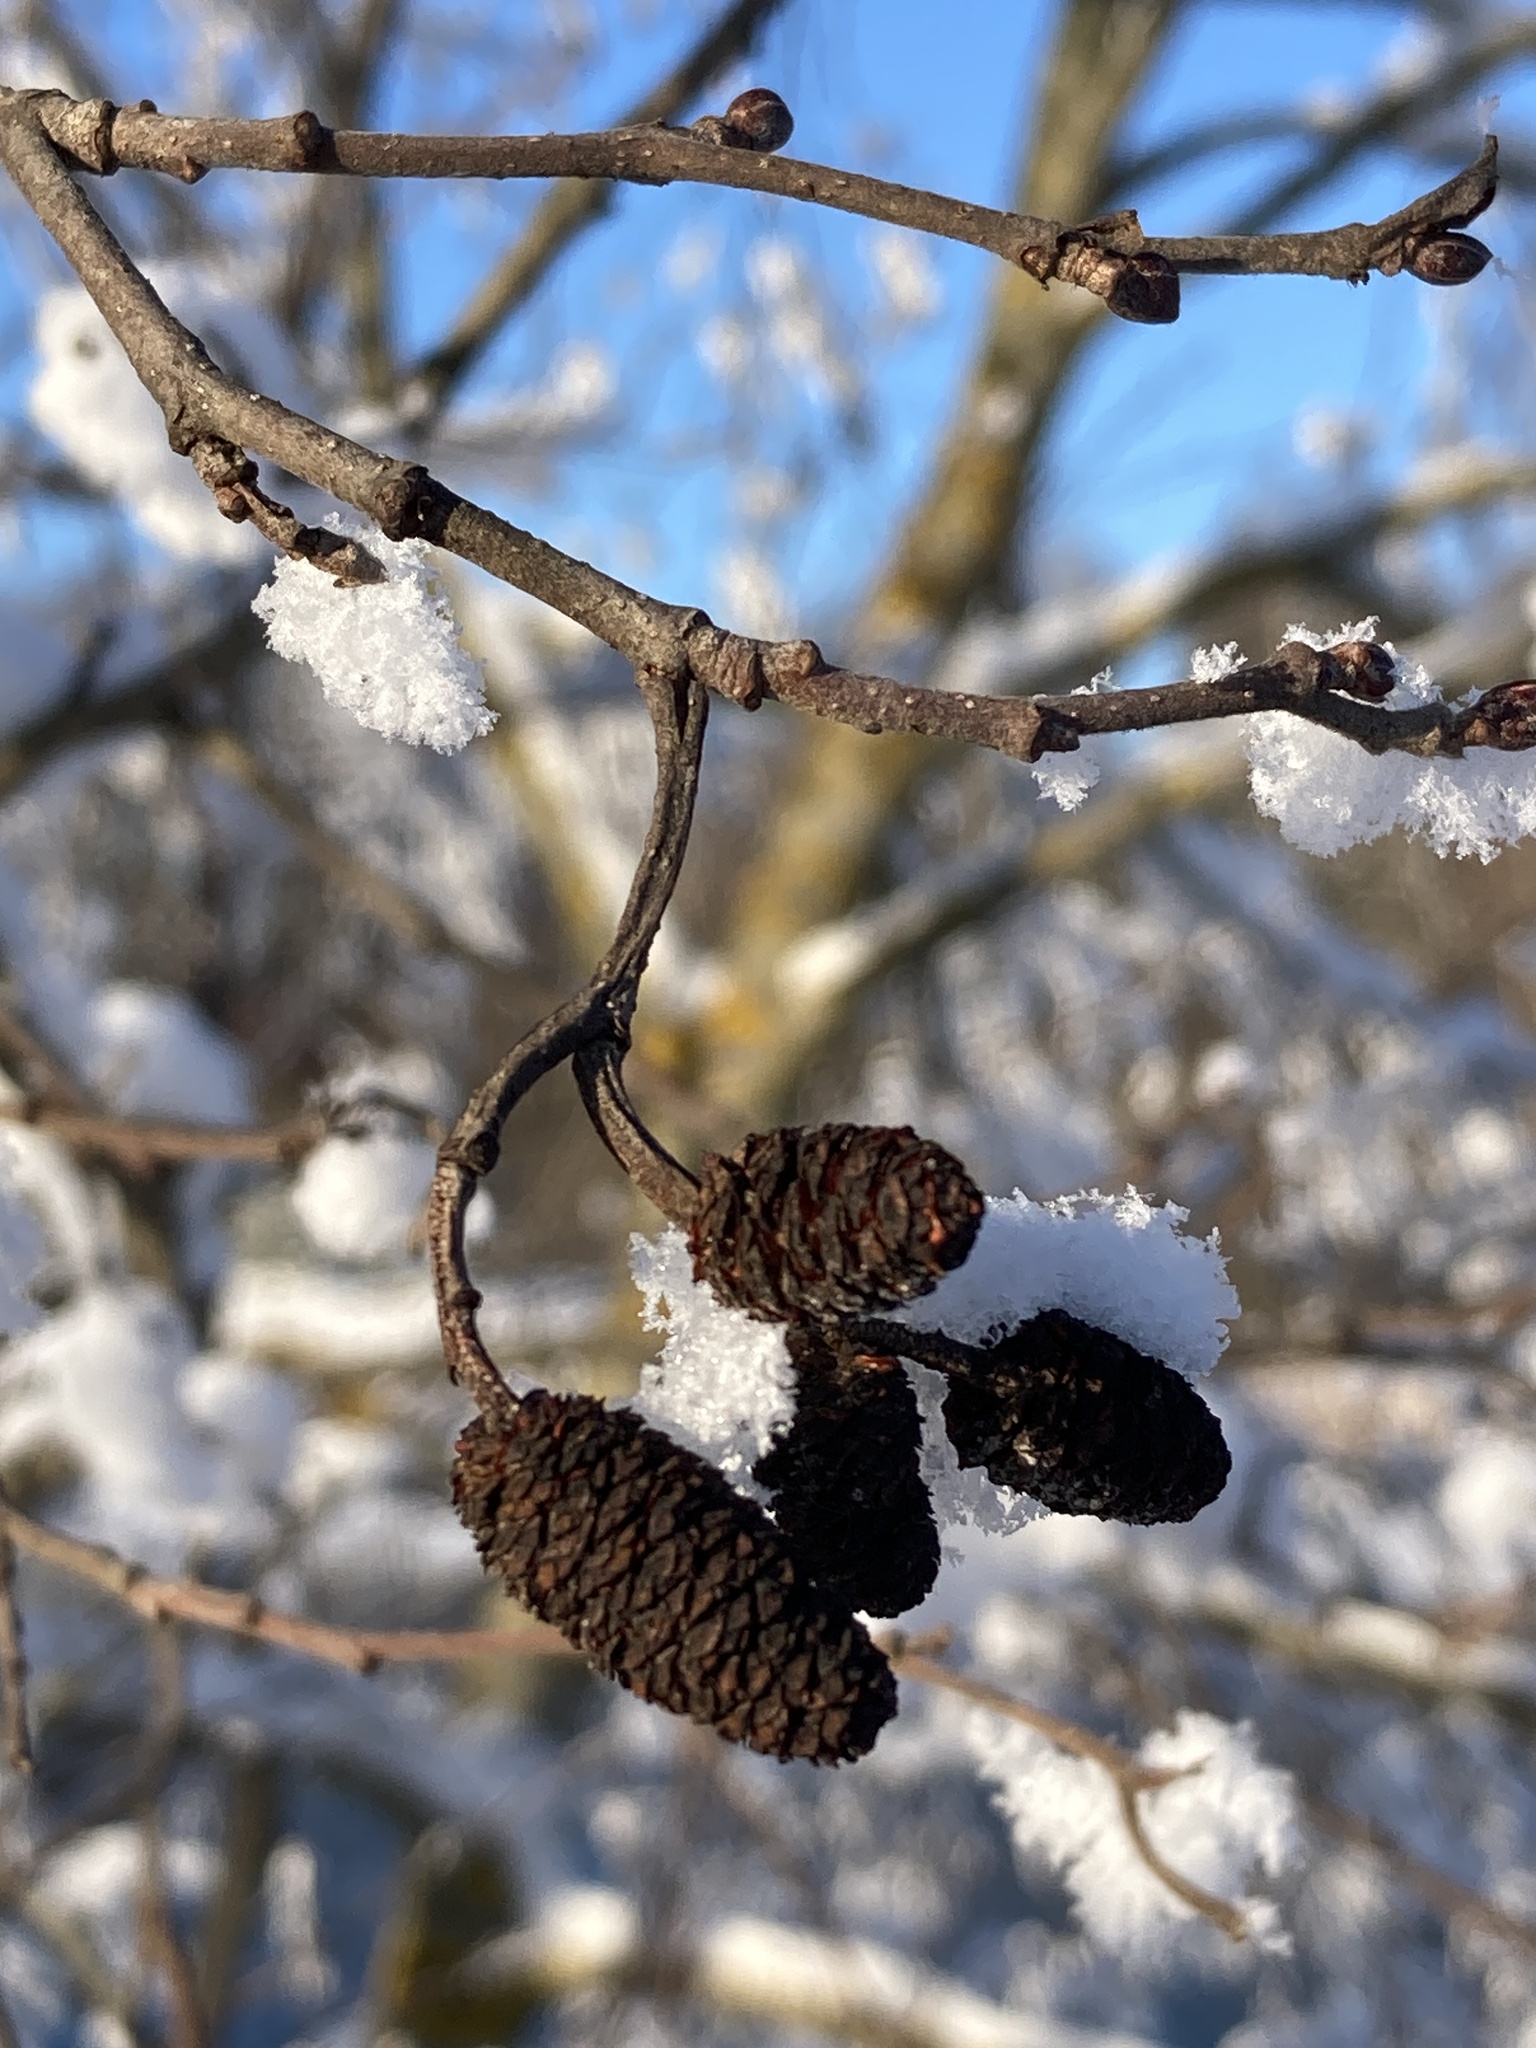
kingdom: Plantae
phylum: Tracheophyta
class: Magnoliopsida
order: Fagales
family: Betulaceae
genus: Alnus
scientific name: Alnus incana
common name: Grey alder
